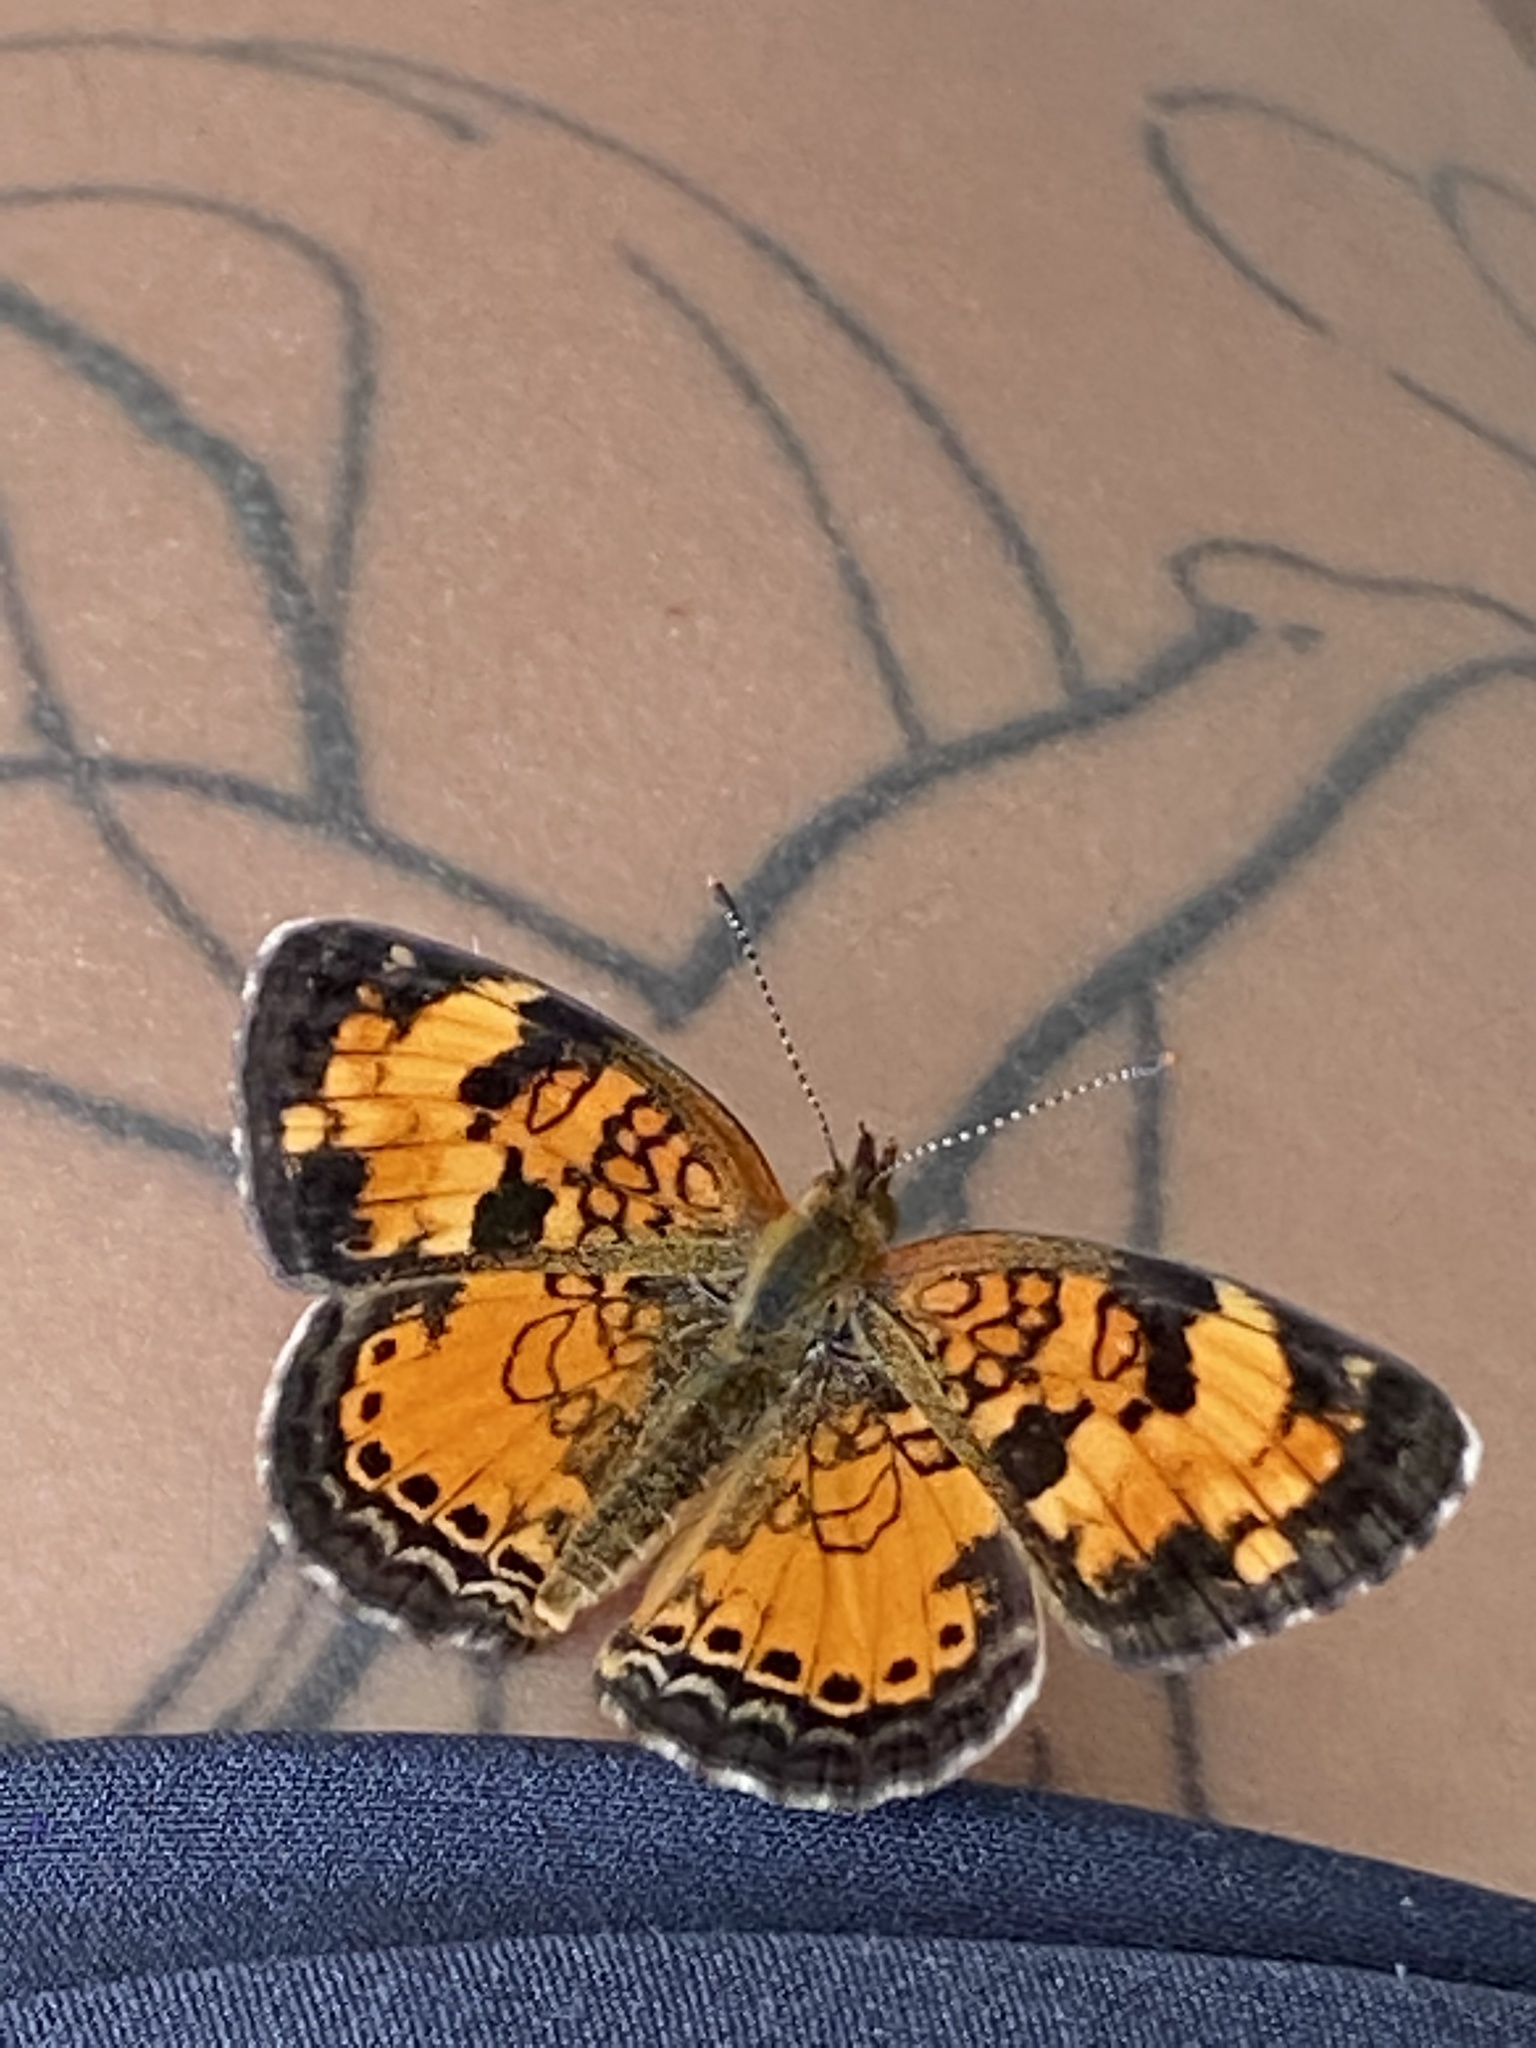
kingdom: Animalia
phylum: Arthropoda
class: Insecta
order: Lepidoptera
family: Nymphalidae
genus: Phyciodes
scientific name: Phyciodes tharos
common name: Pearl crescent
